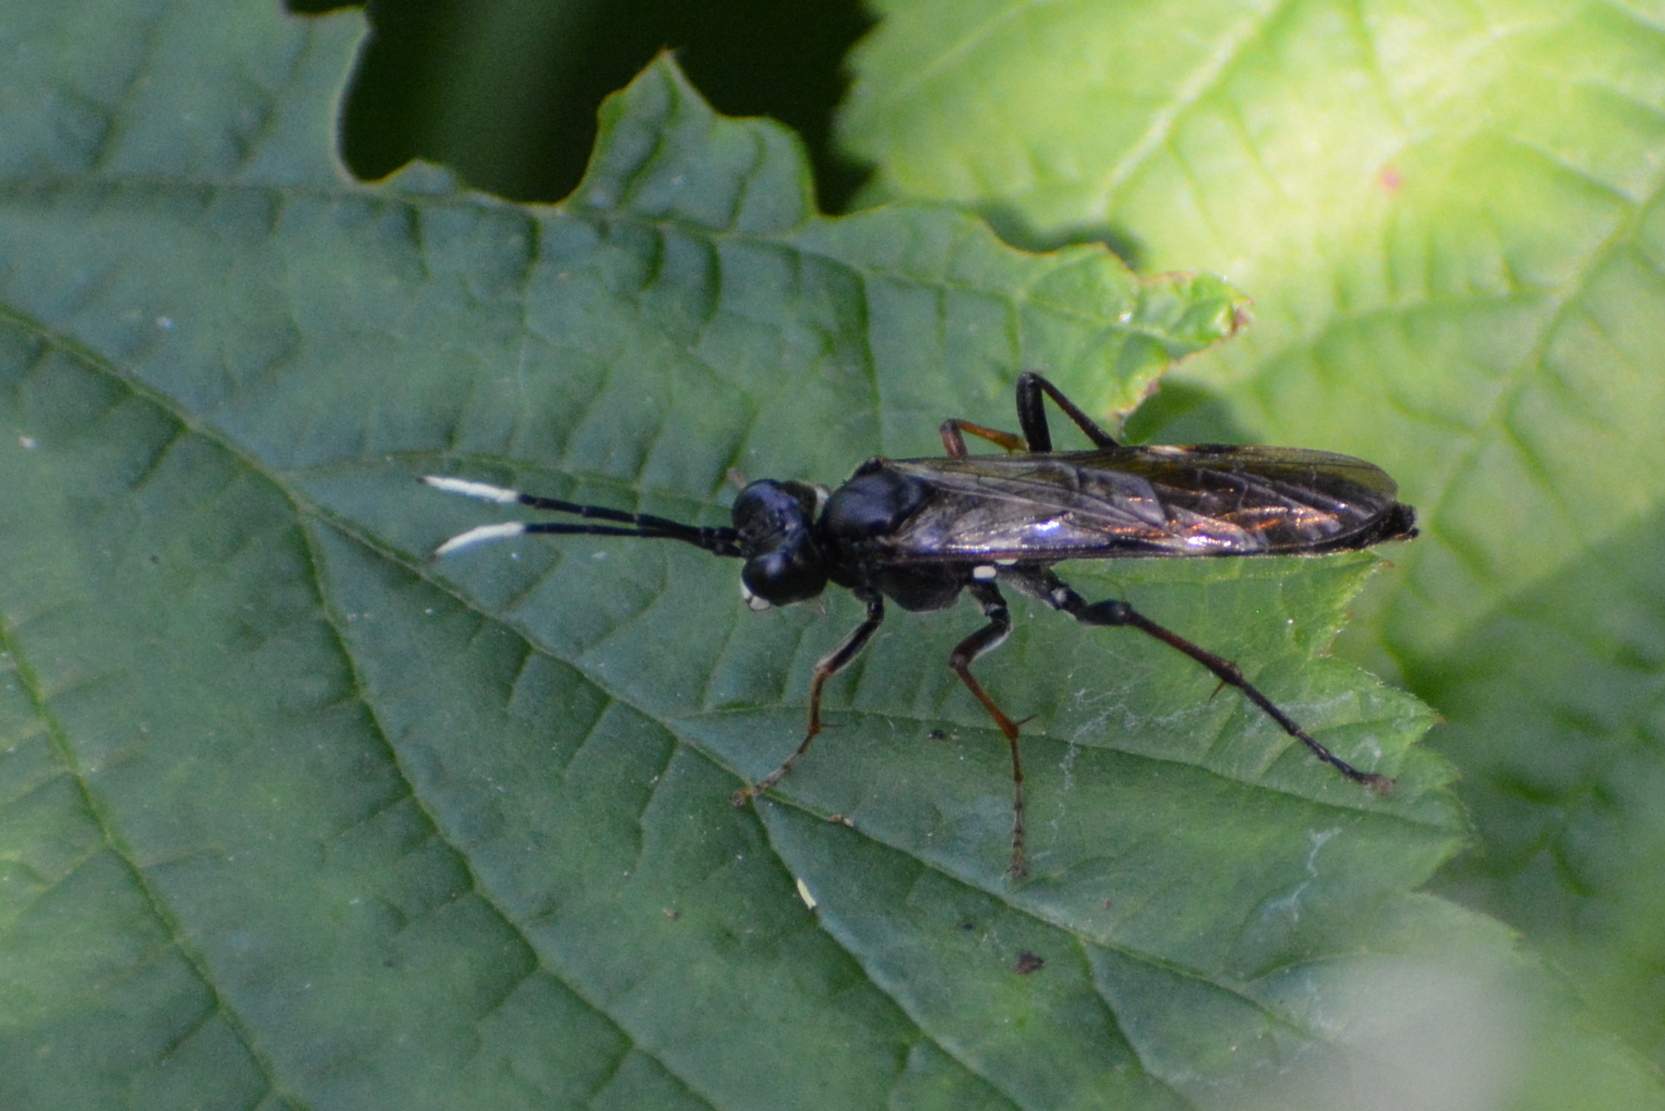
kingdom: Animalia
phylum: Arthropoda
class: Insecta
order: Hymenoptera
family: Tenthredinidae
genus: Tenthredo
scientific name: Tenthredo livida
